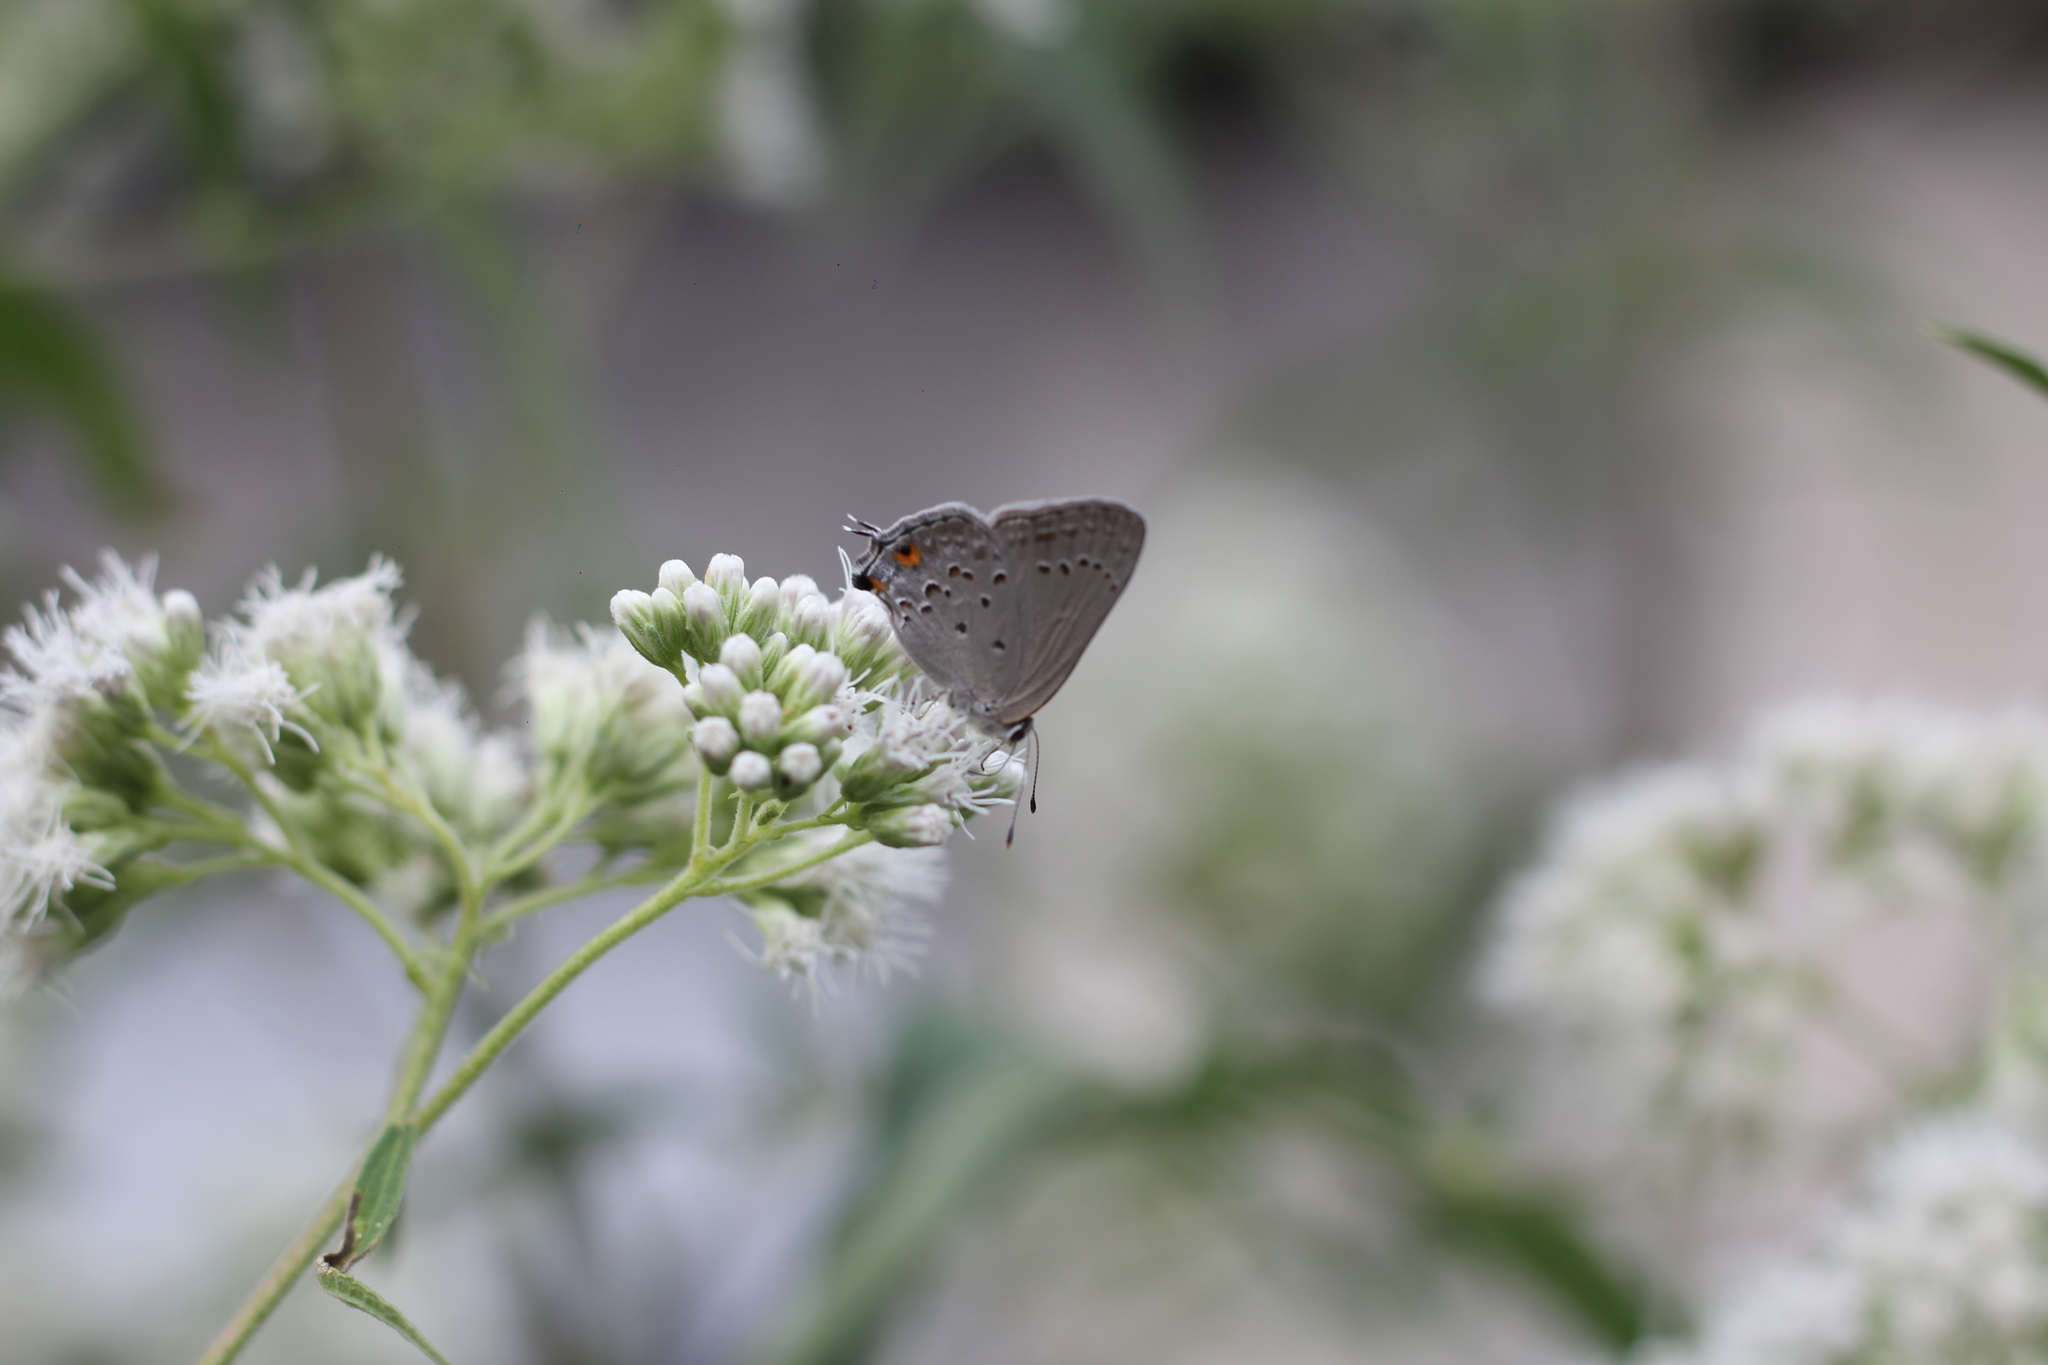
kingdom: Animalia
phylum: Arthropoda
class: Insecta
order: Lepidoptera
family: Lycaenidae
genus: Strymon
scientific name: Strymon eurytulus
